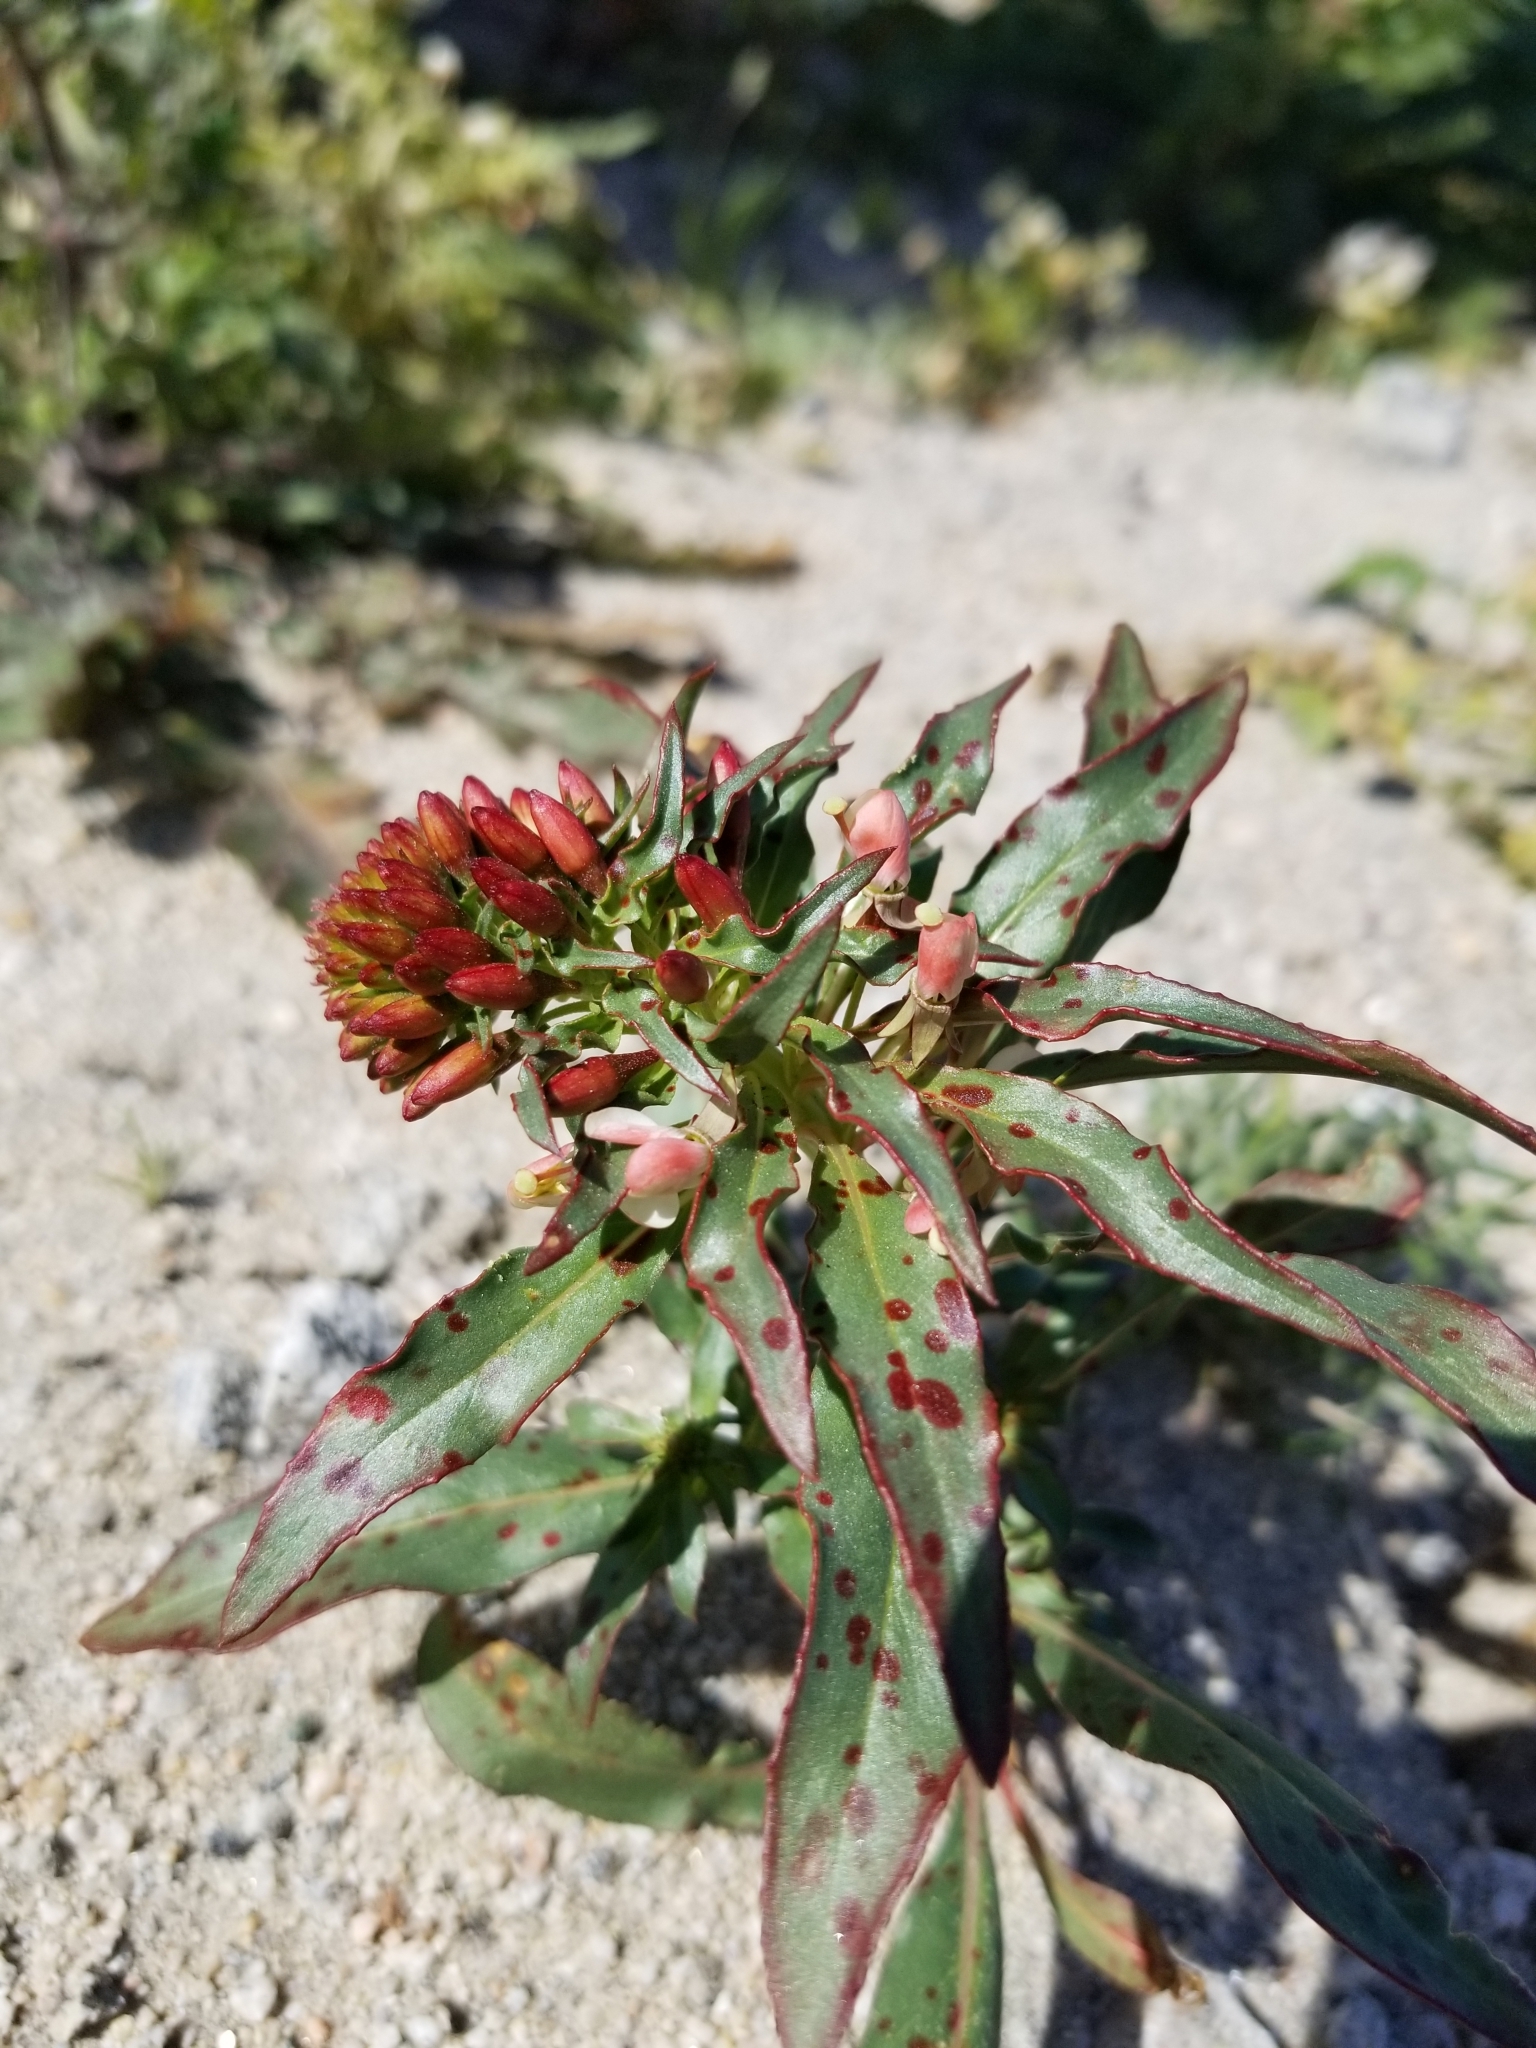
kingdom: Plantae
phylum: Tracheophyta
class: Magnoliopsida
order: Myrtales
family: Onagraceae
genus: Eremothera
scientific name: Eremothera boothii
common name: Booth's evening primrose
